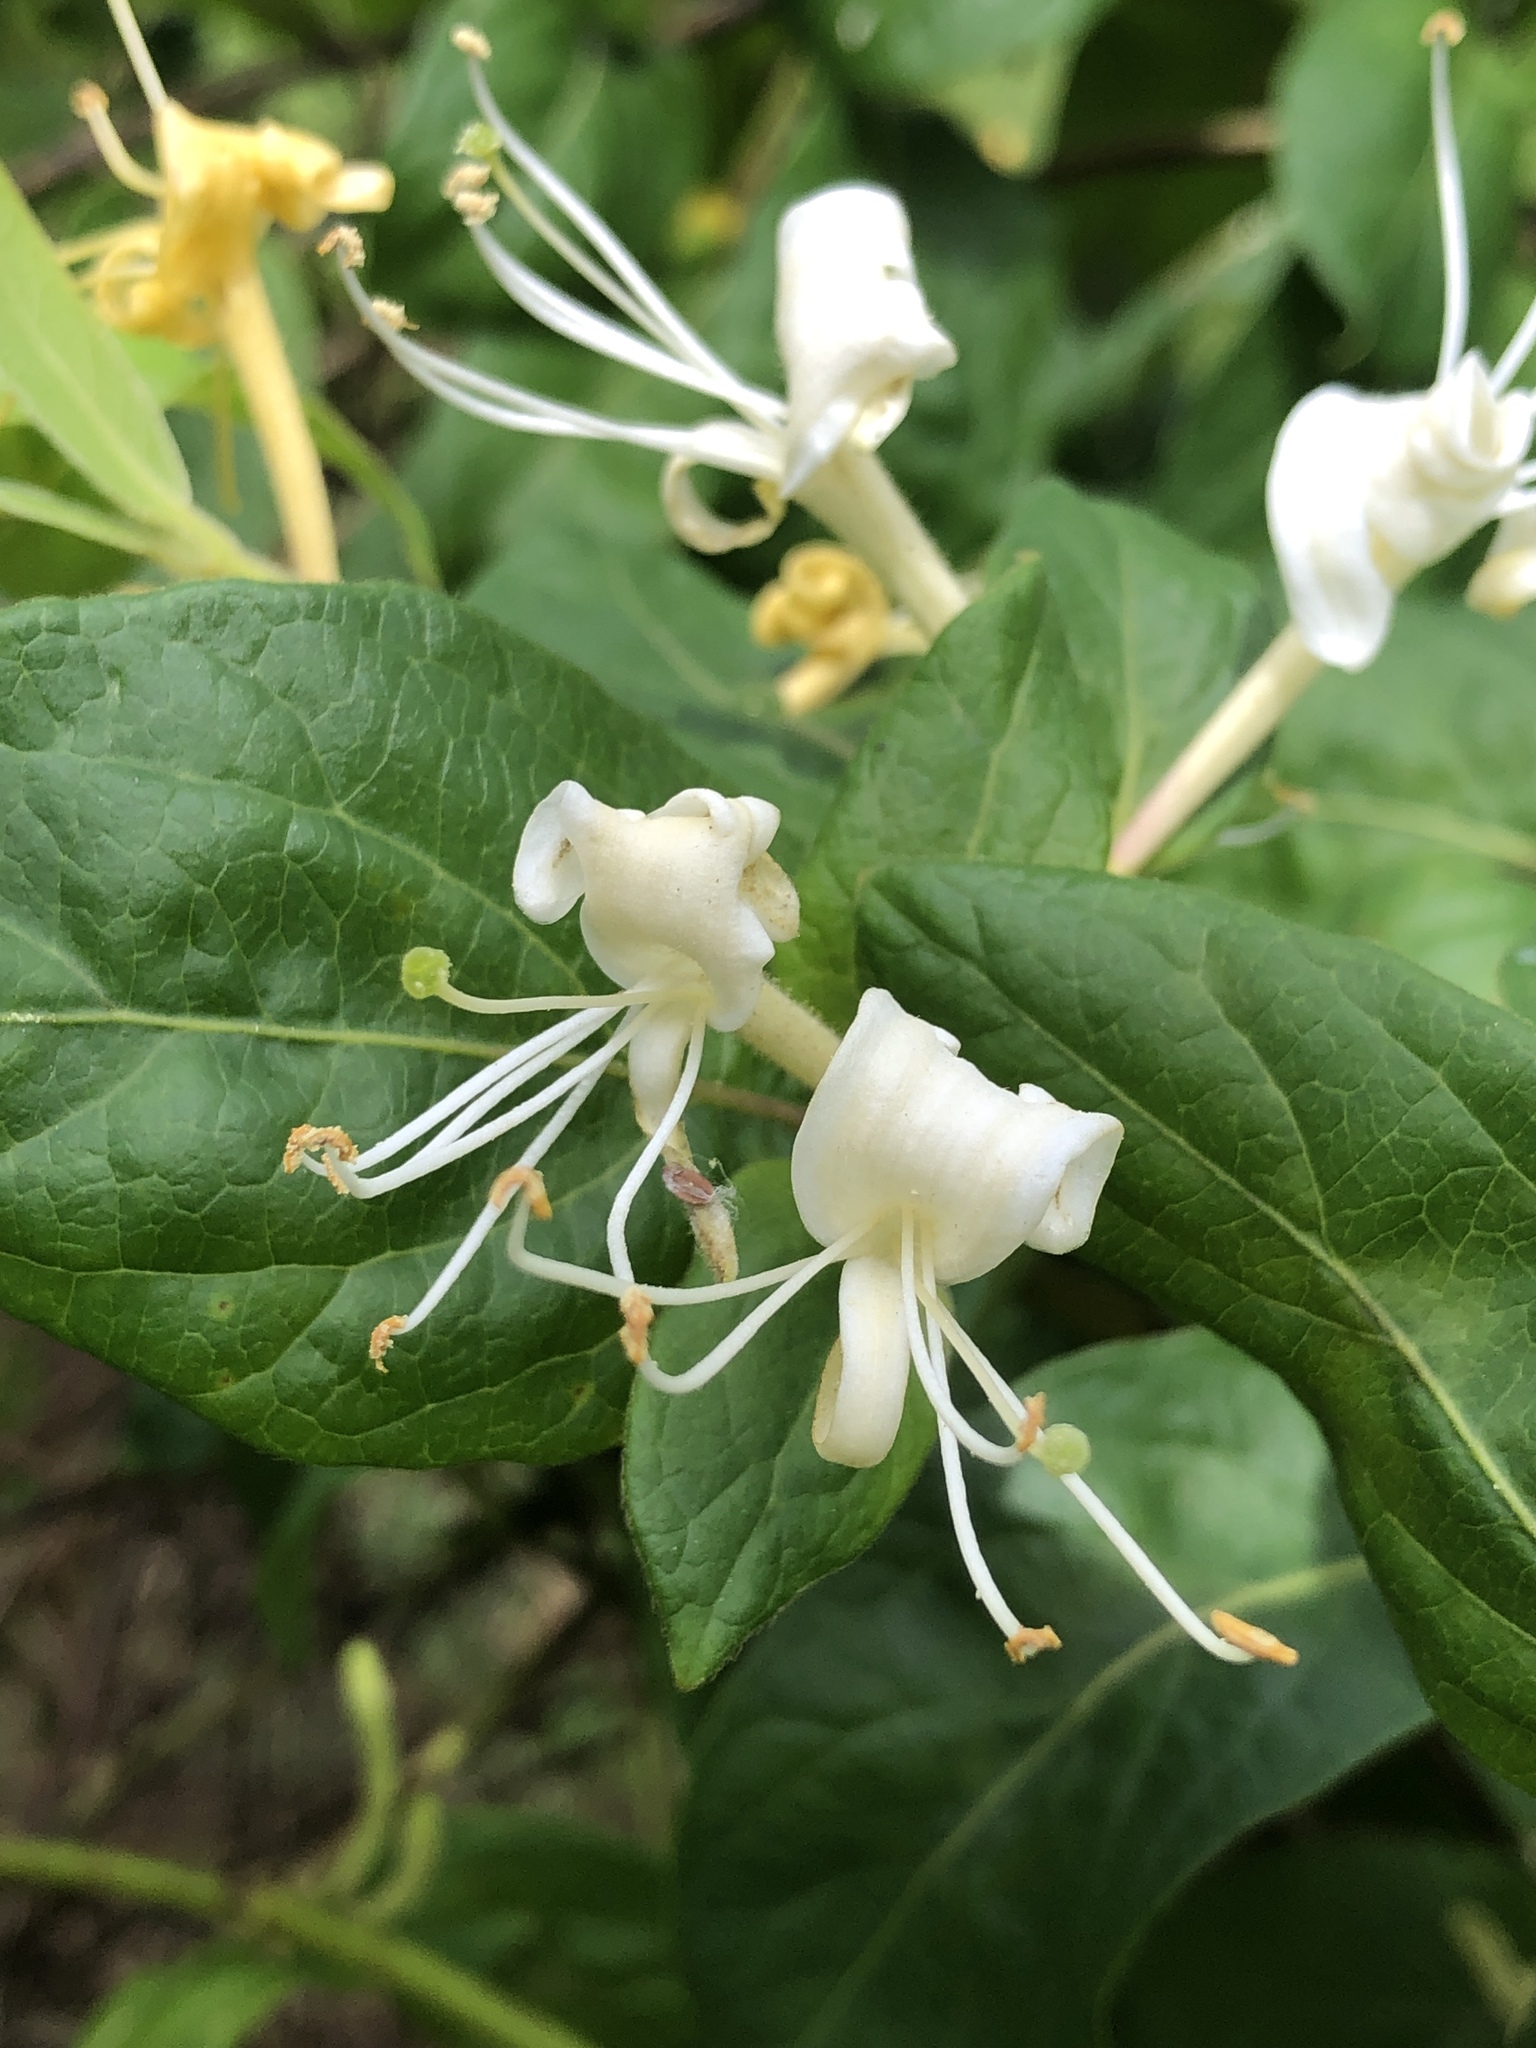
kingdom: Plantae
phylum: Tracheophyta
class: Magnoliopsida
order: Dipsacales
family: Caprifoliaceae
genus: Lonicera
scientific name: Lonicera japonica
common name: Japanese honeysuckle
